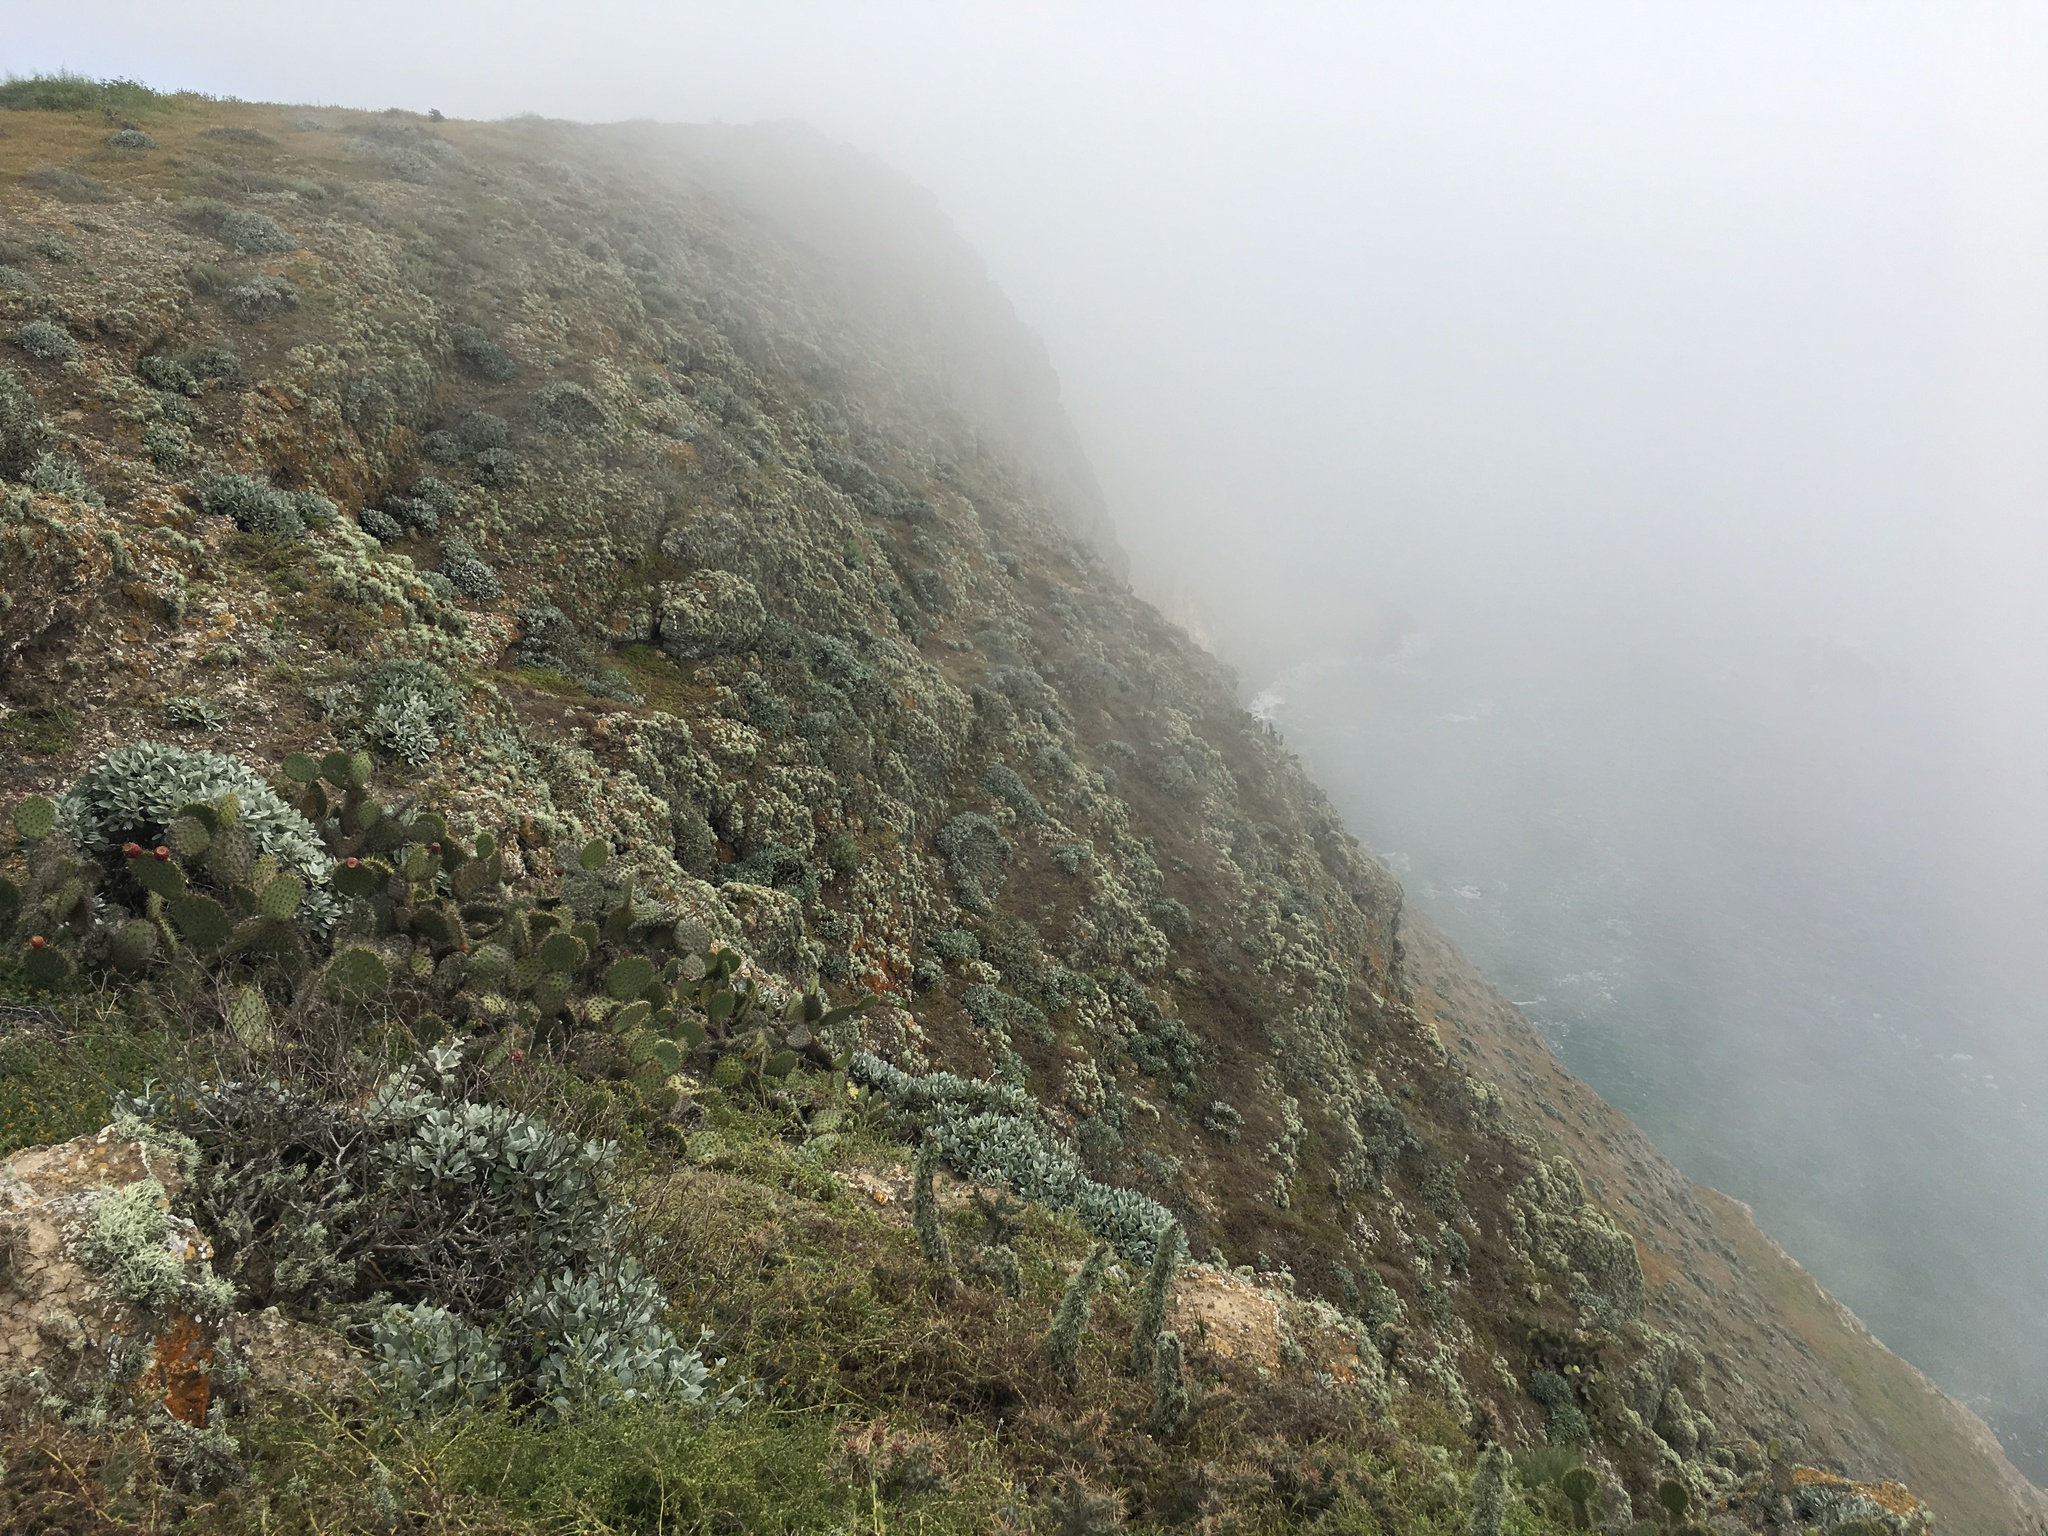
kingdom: Plantae
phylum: Tracheophyta
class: Magnoliopsida
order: Caryophyllales
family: Polygonaceae
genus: Eriogonum
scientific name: Eriogonum giganteum
